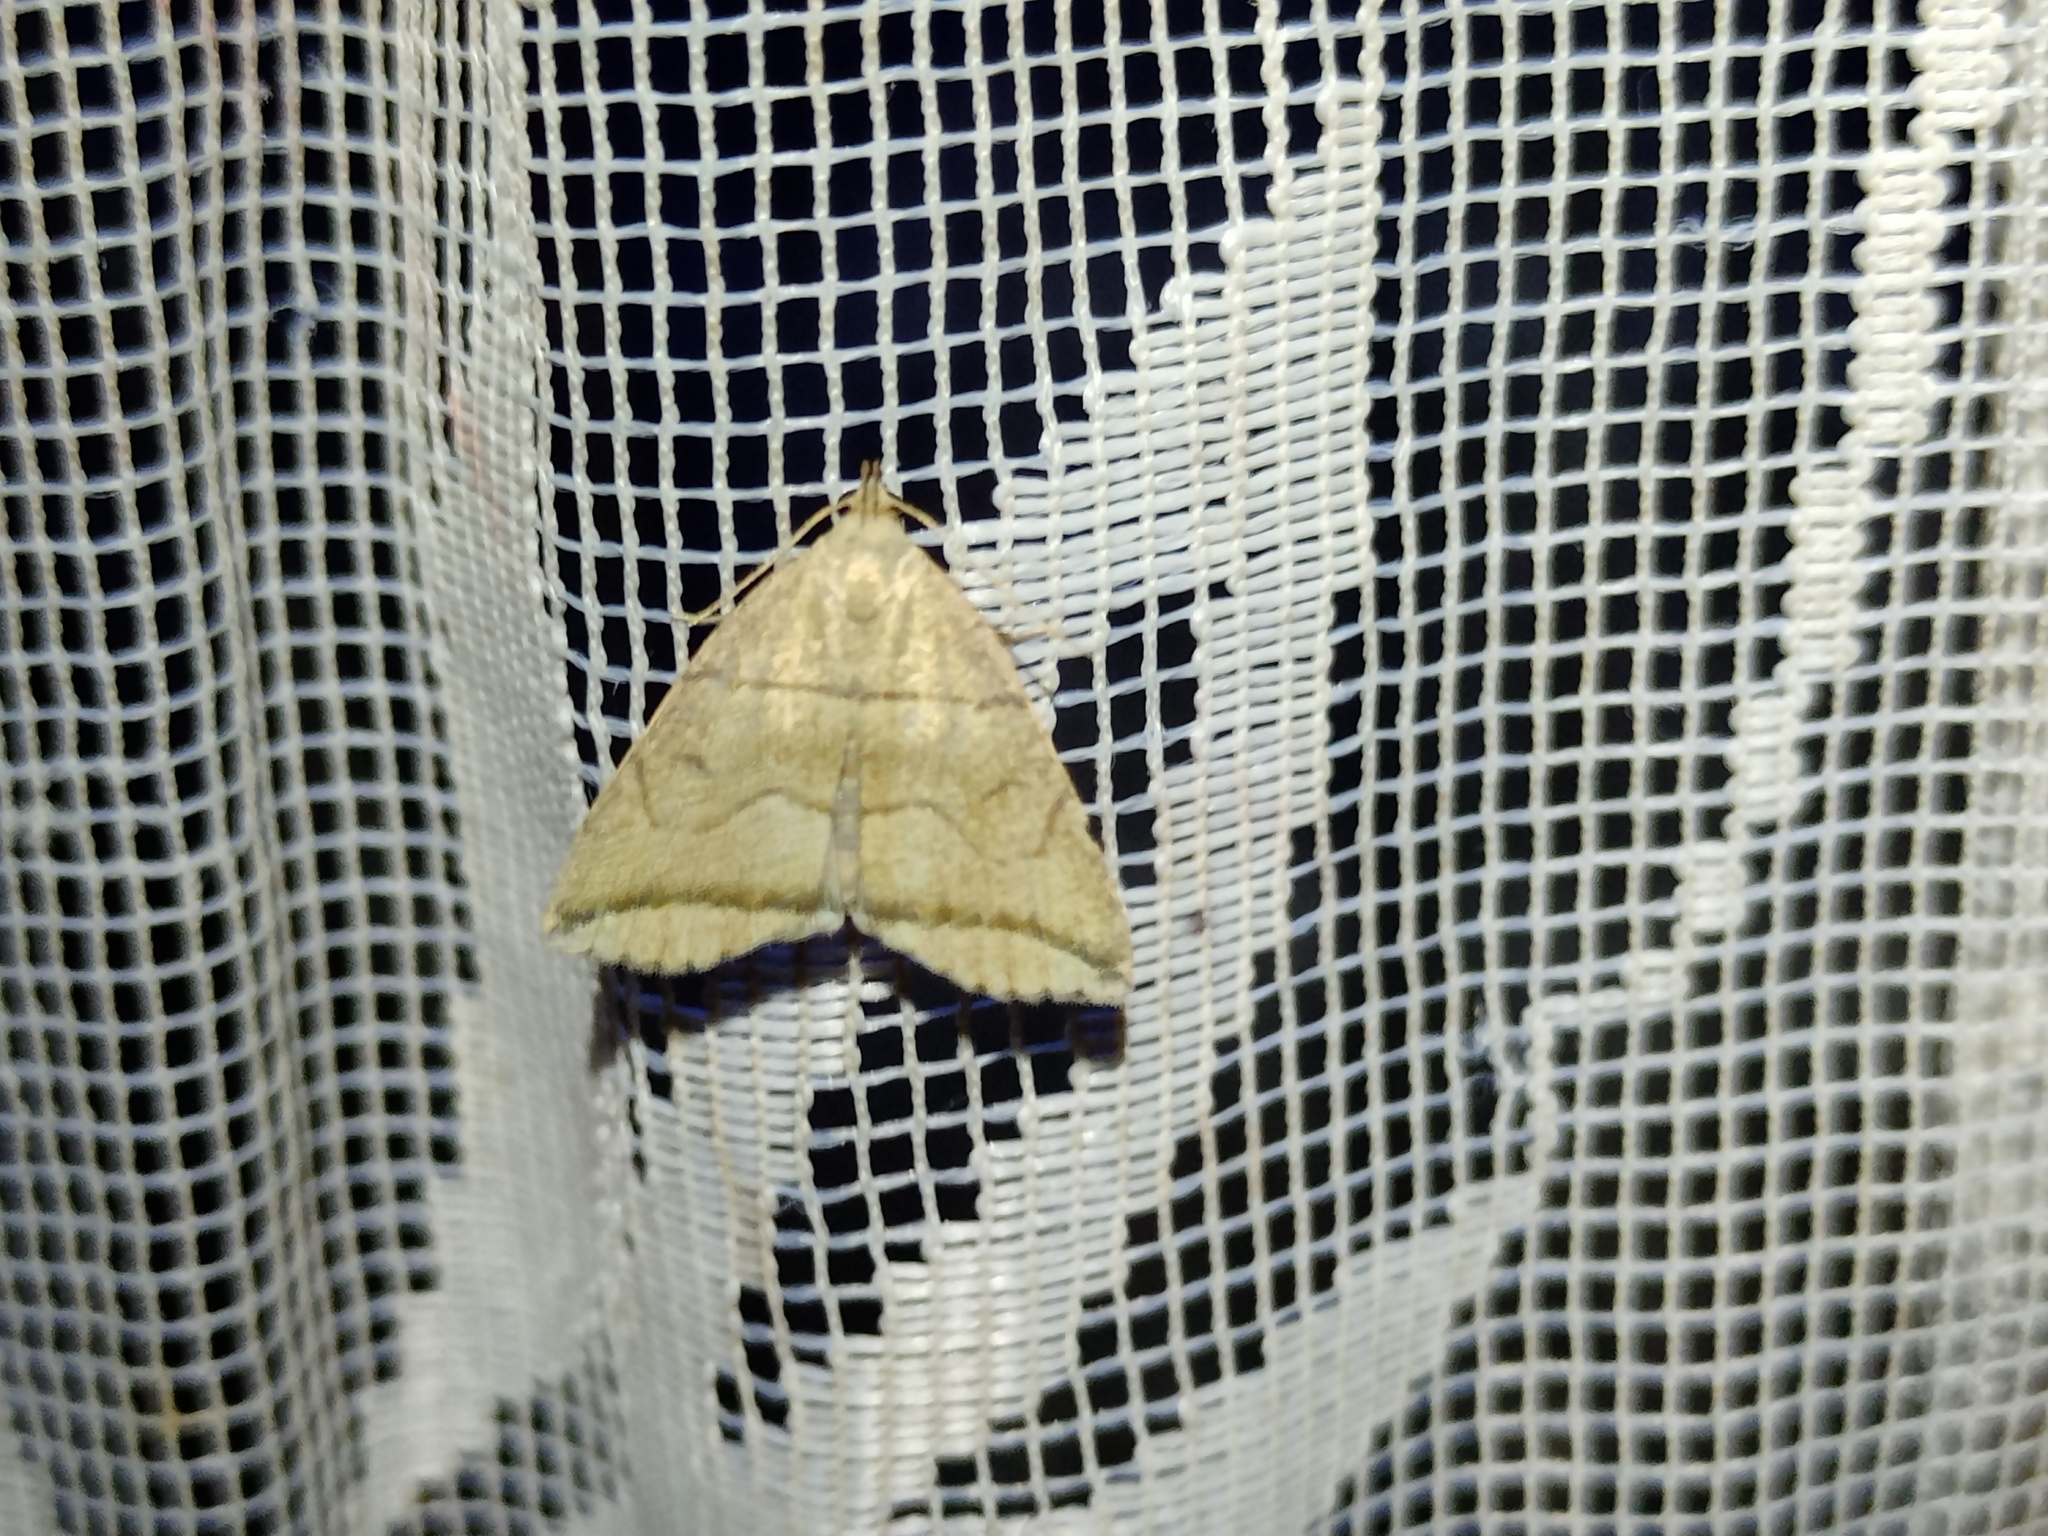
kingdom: Animalia
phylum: Arthropoda
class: Insecta
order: Lepidoptera
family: Erebidae
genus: Herminia
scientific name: Herminia grisealis
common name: Small fan-foot
